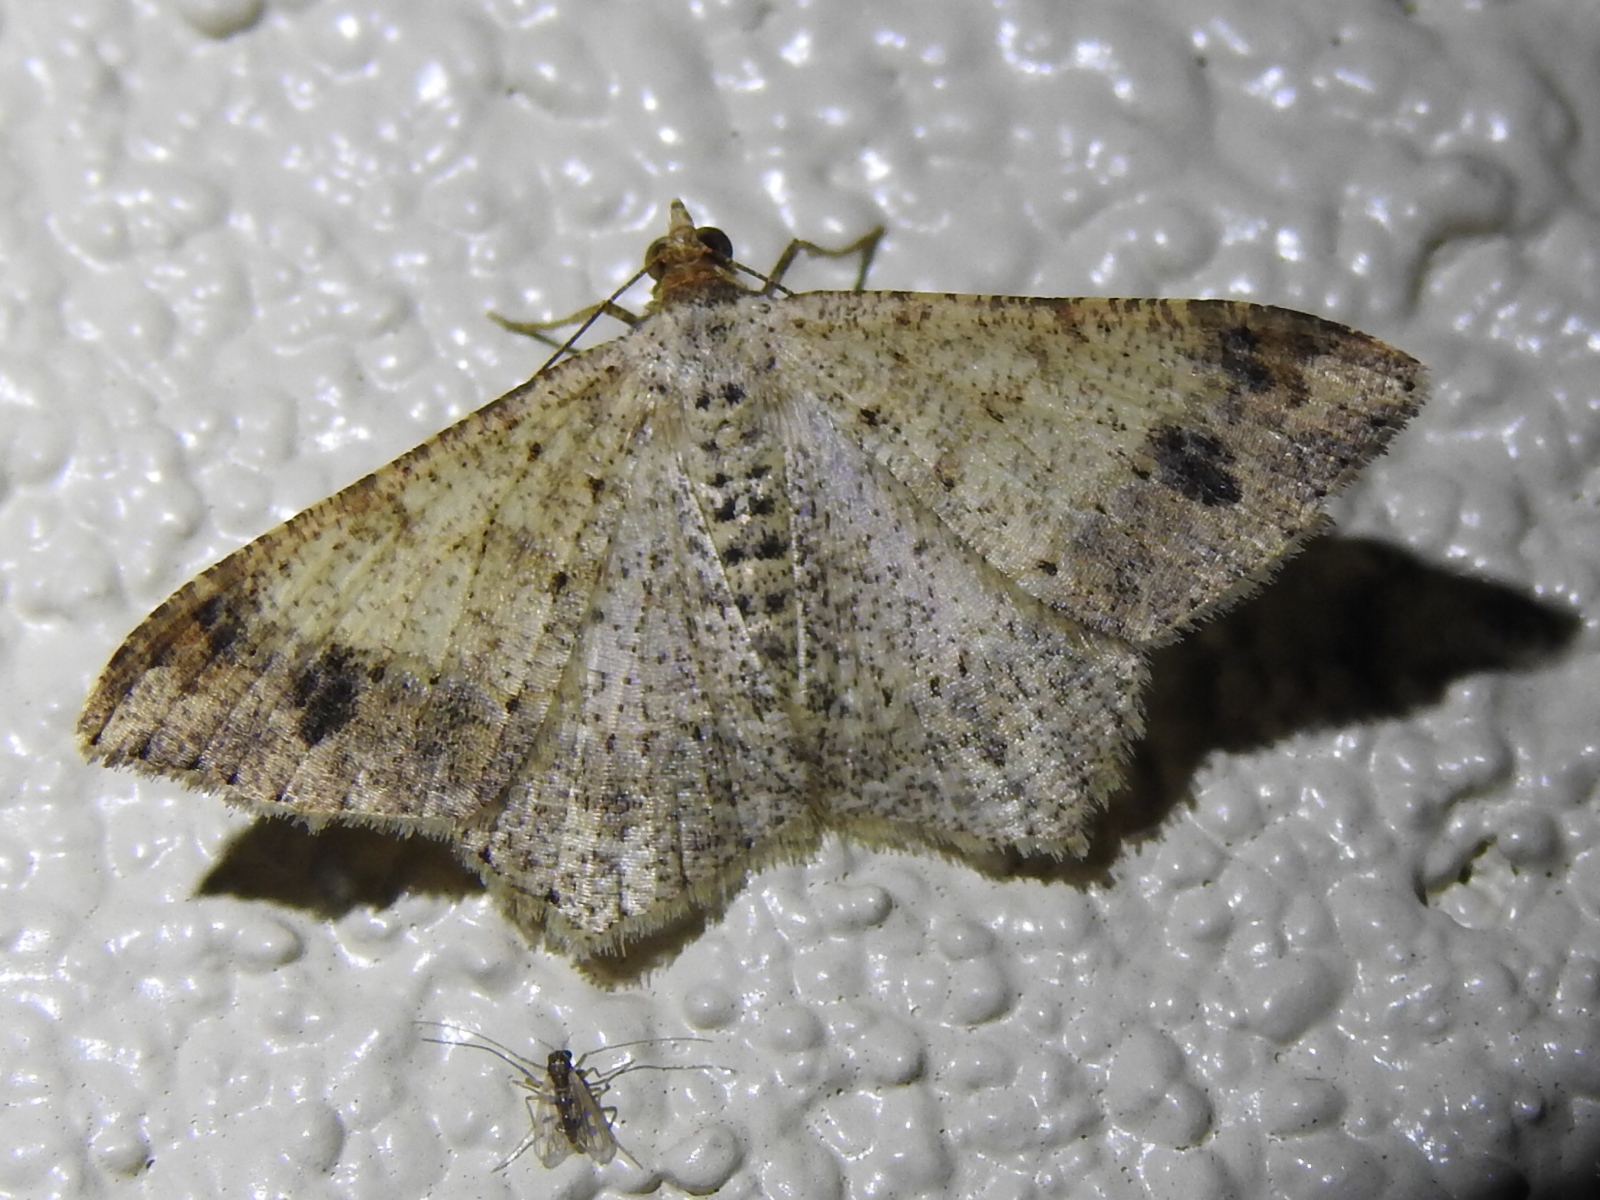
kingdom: Animalia
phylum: Arthropoda
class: Insecta
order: Lepidoptera
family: Geometridae
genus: Macaria
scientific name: Macaria abydata
